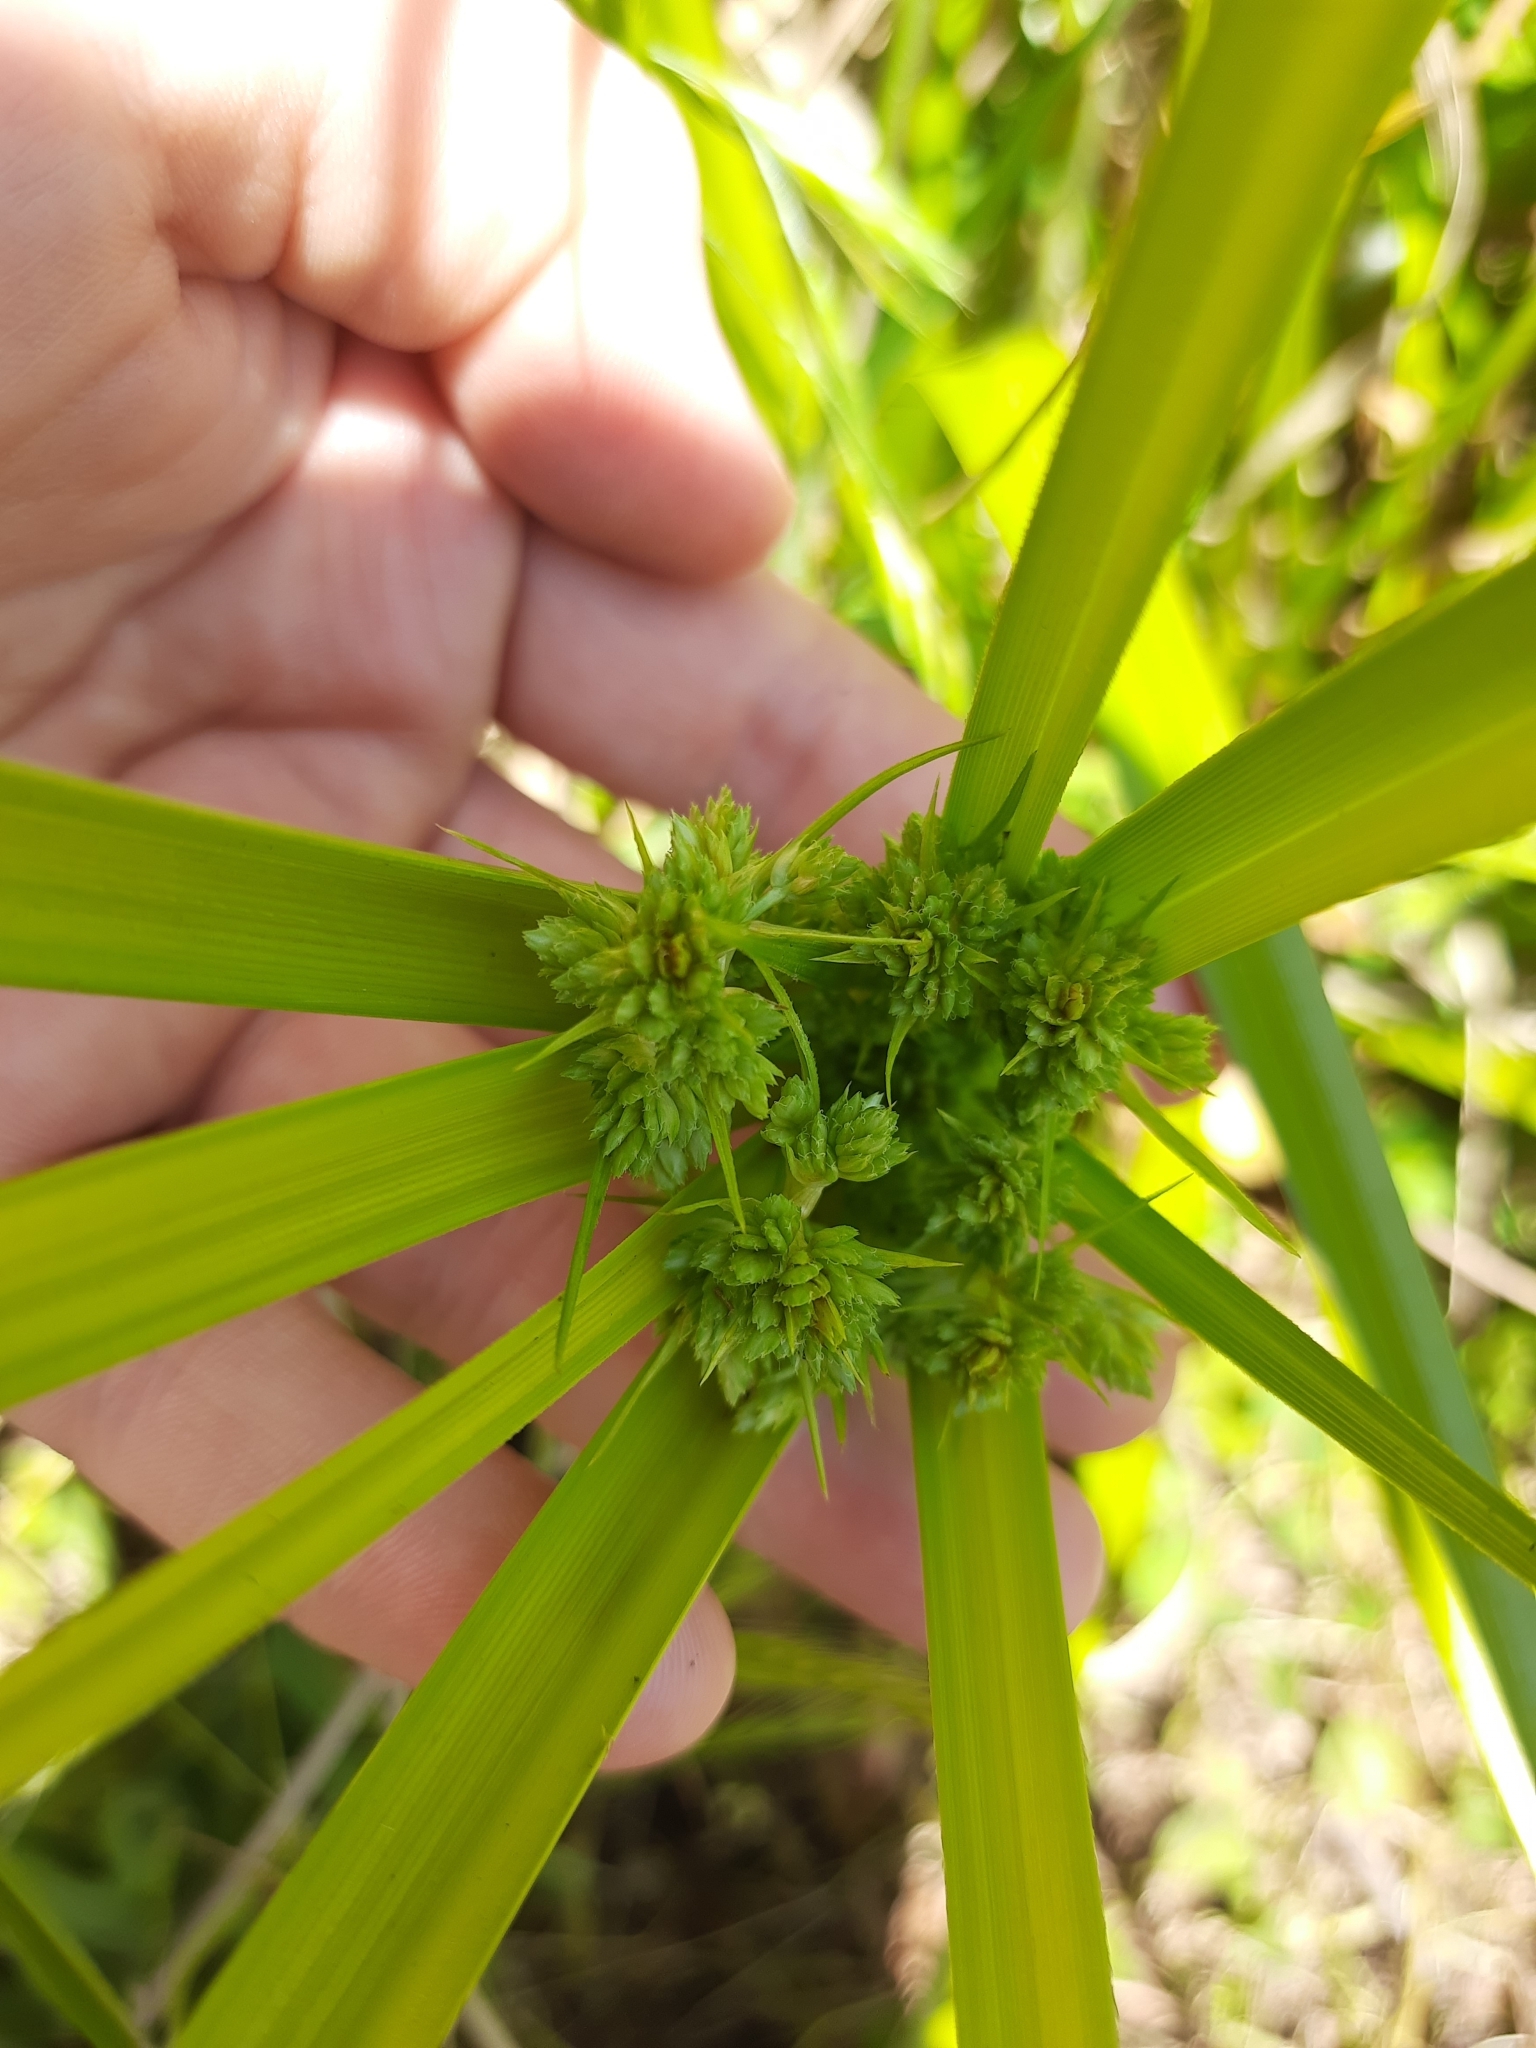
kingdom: Plantae
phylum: Tracheophyta
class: Liliopsida
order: Poales
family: Cyperaceae
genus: Cyperus
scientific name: Cyperus eragrostis
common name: Tall flatsedge
